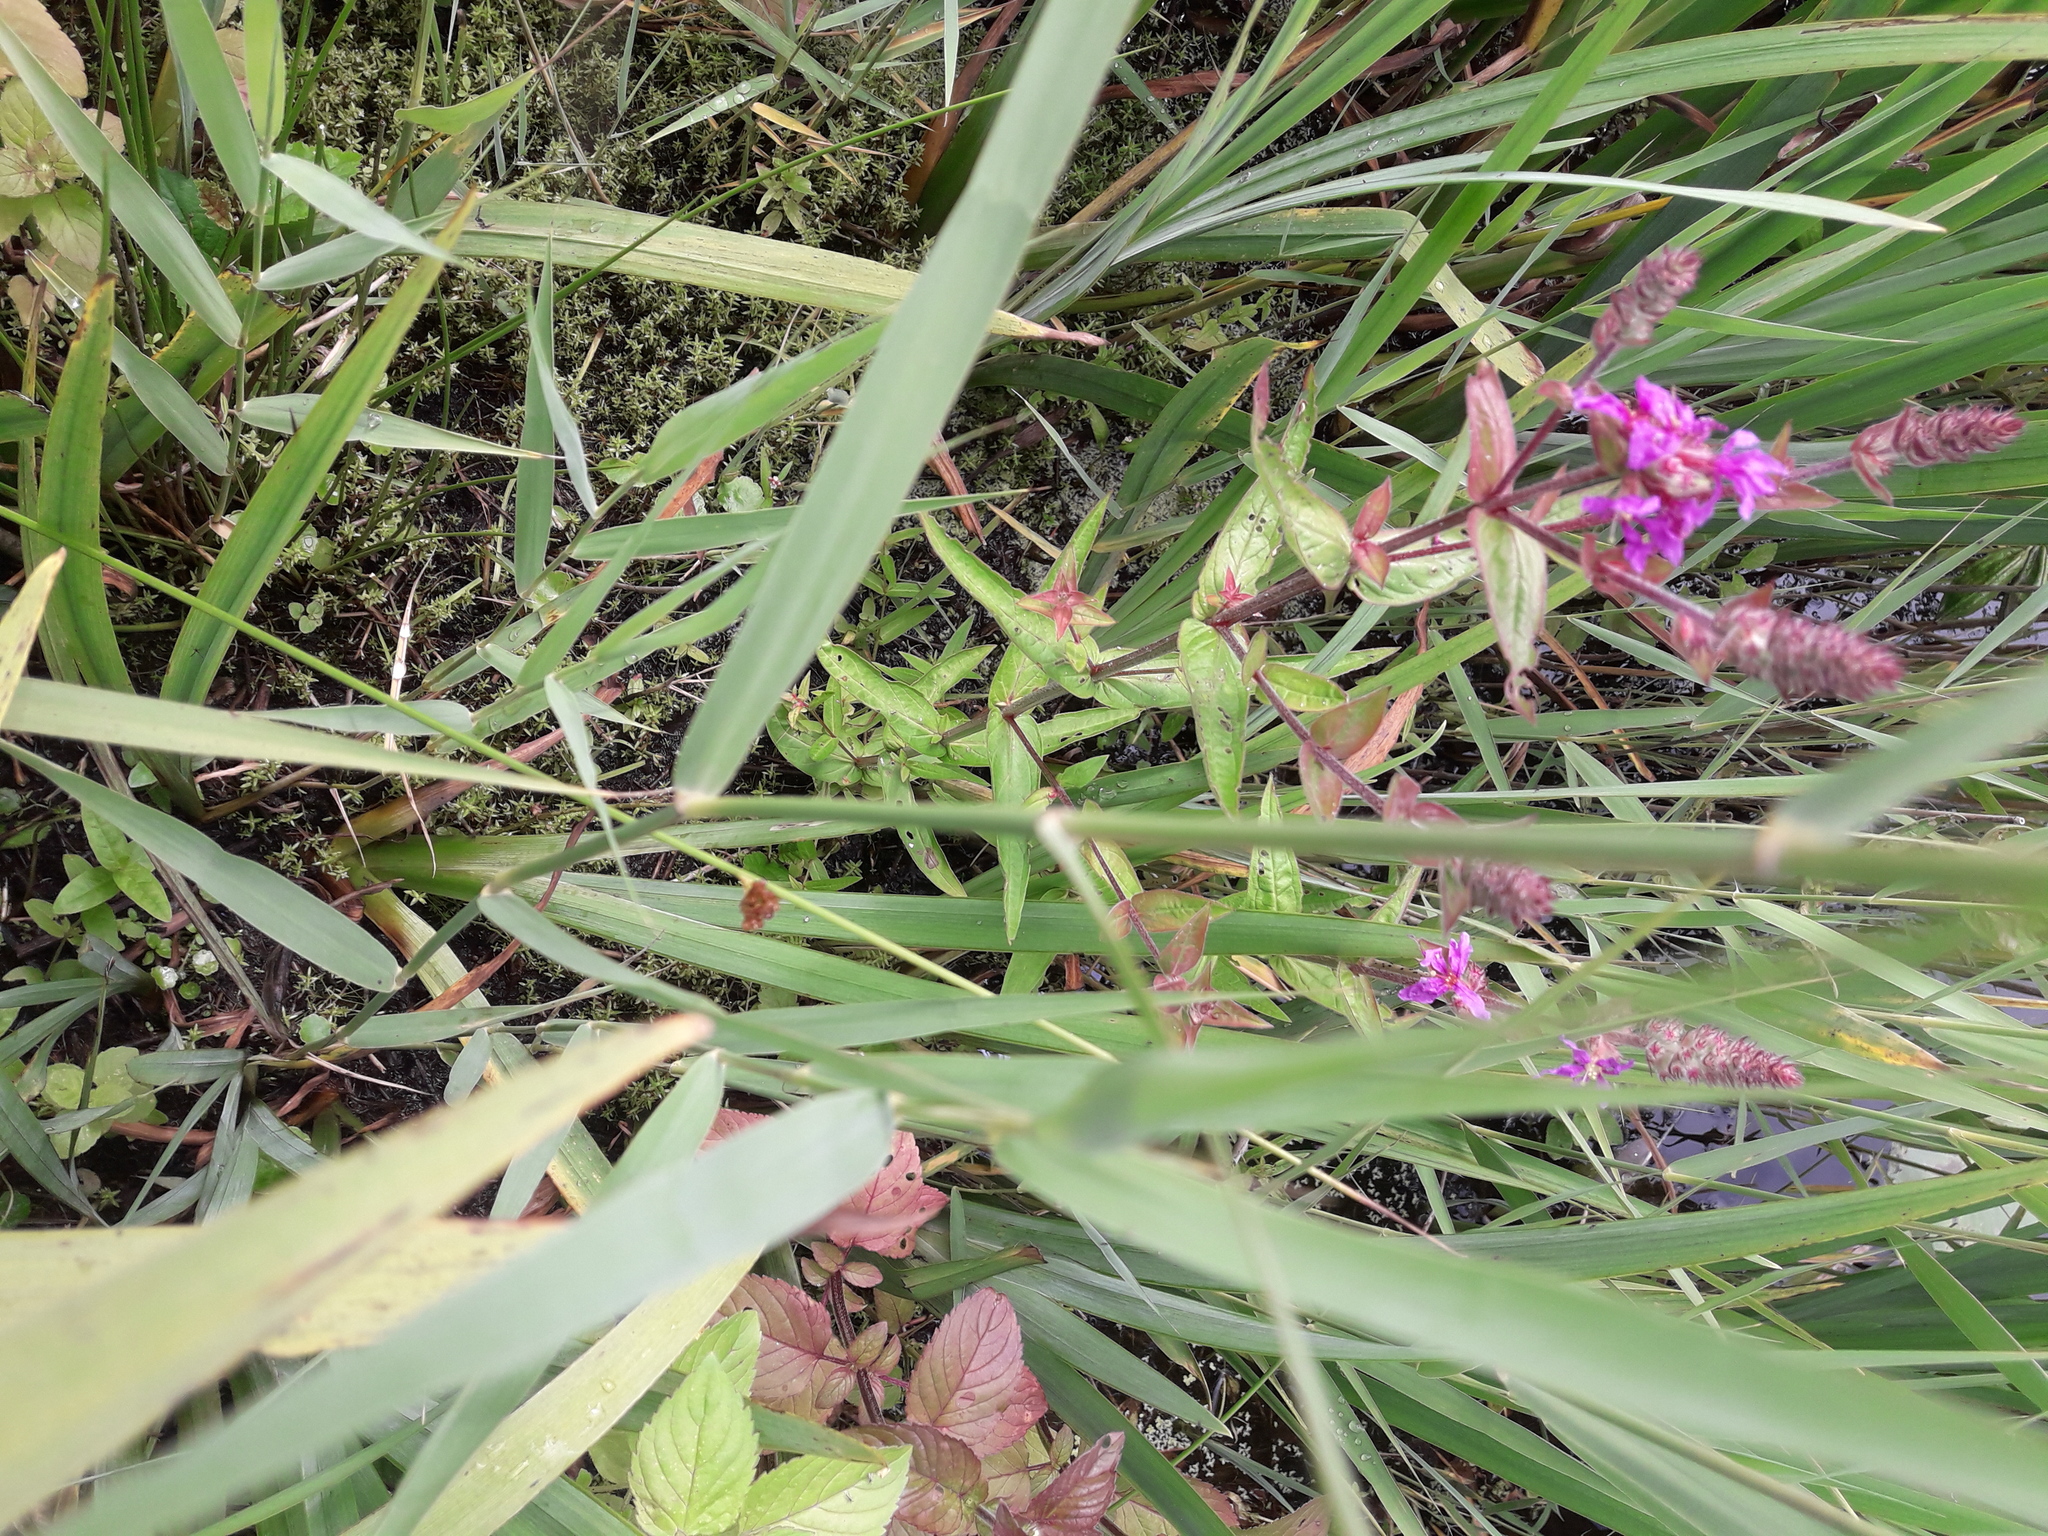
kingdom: Plantae
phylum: Tracheophyta
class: Magnoliopsida
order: Saxifragales
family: Crassulaceae
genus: Crassula
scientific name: Crassula helmsii
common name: New zealand pigmyweed
